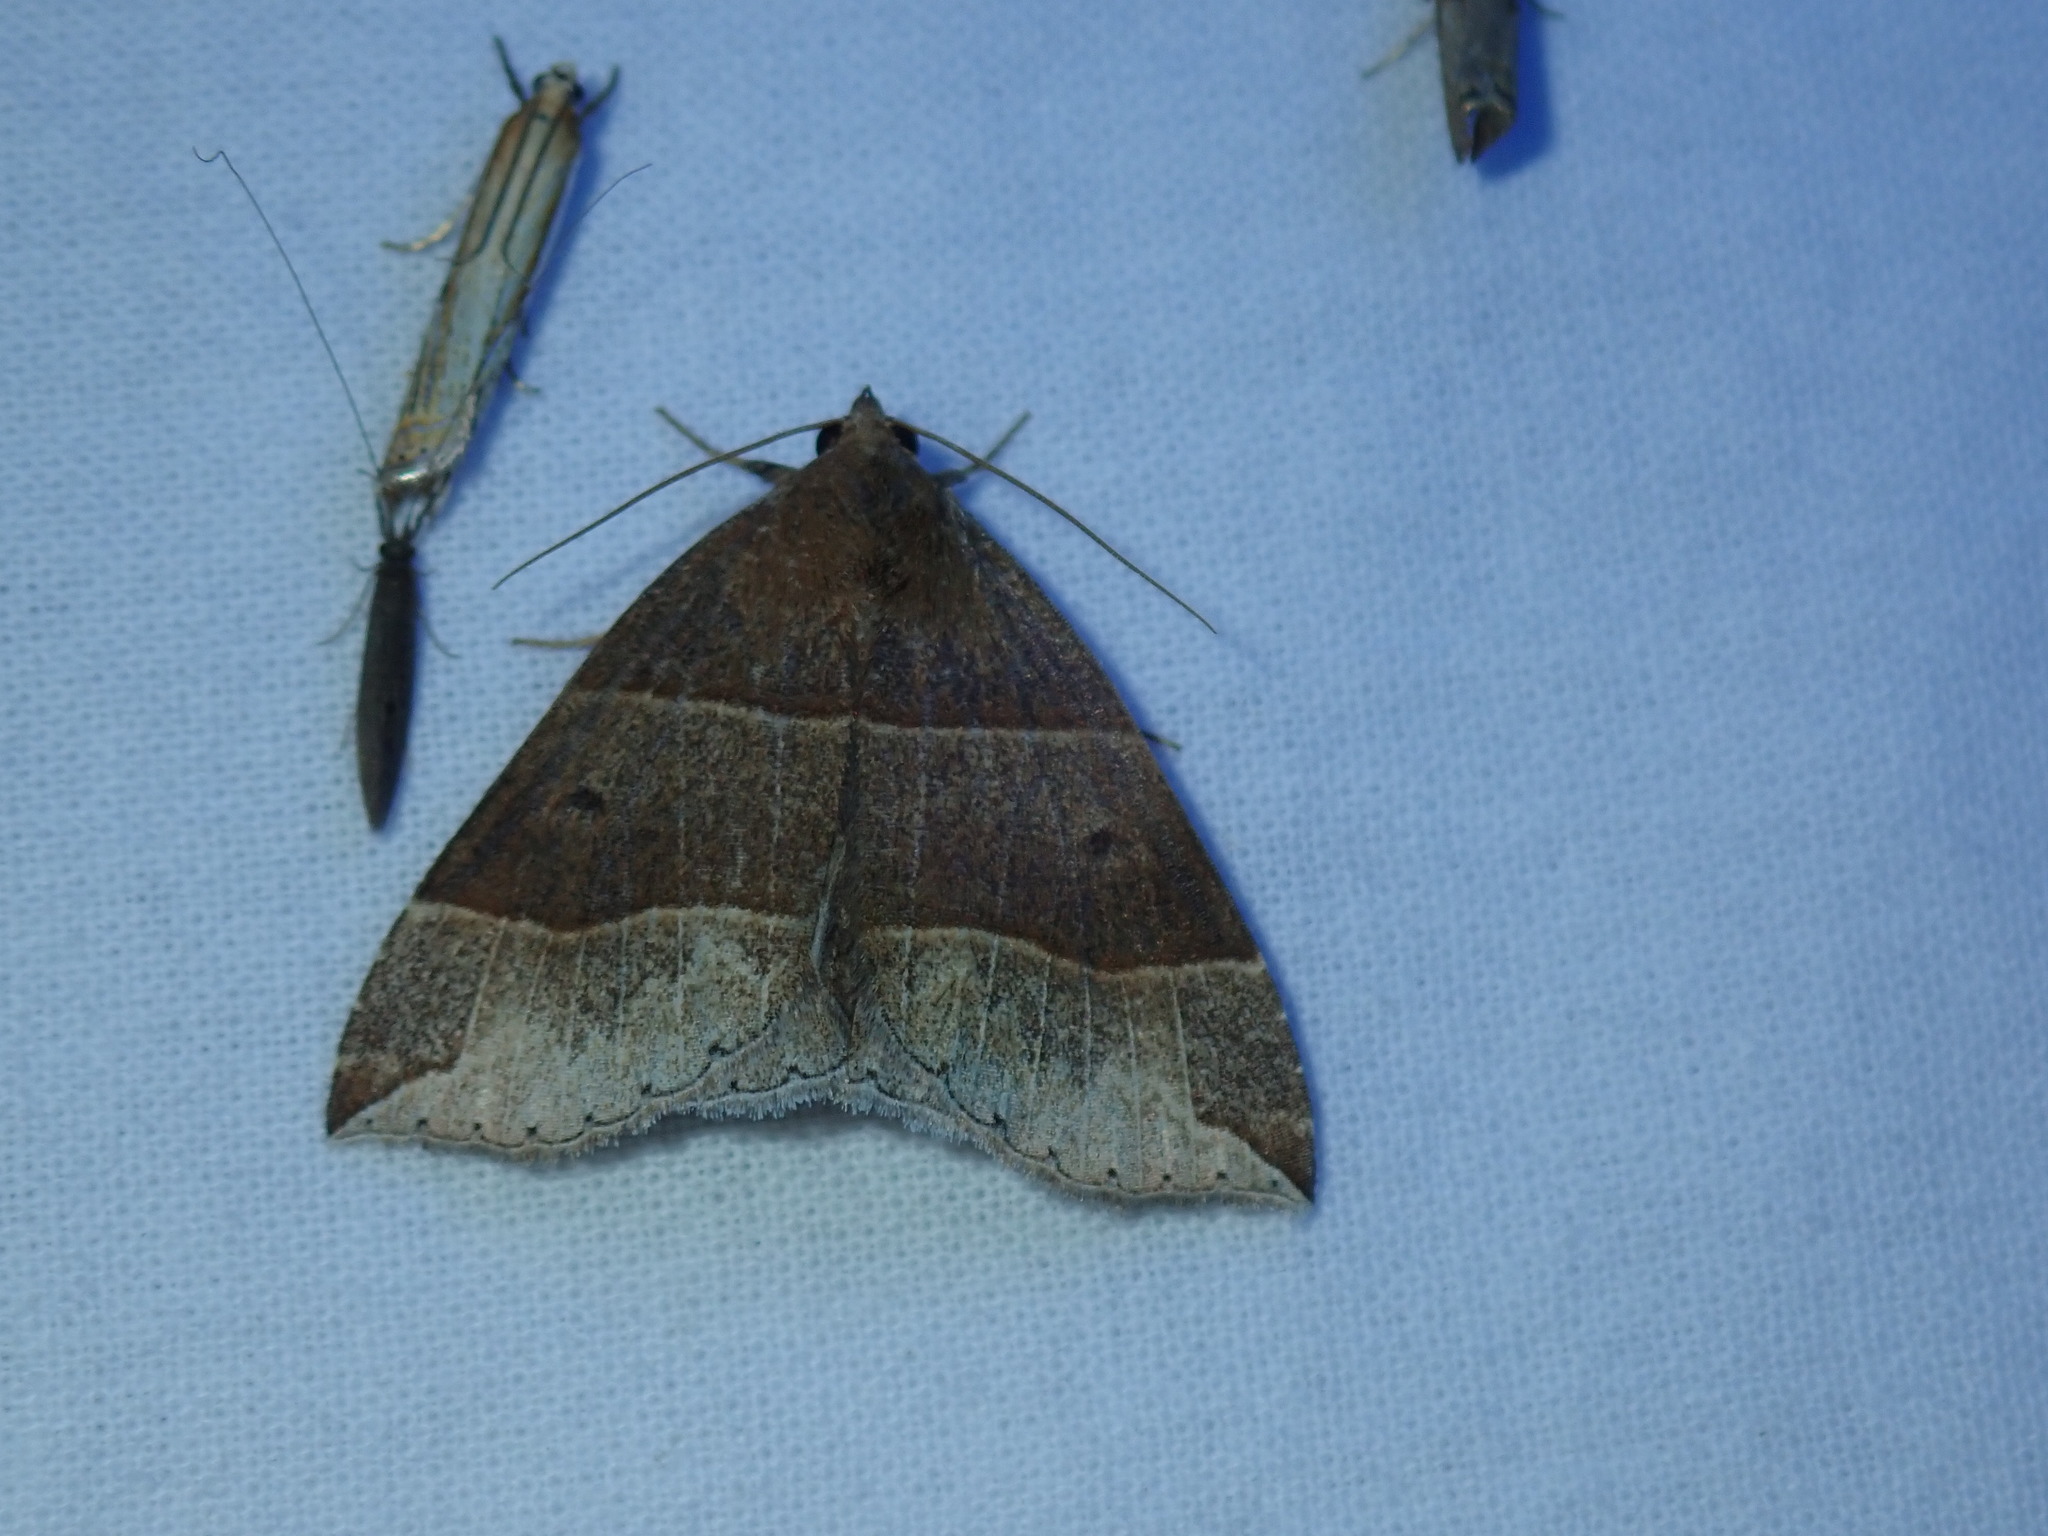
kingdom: Animalia
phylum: Arthropoda
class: Insecta
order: Lepidoptera
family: Erebidae
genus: Parallelia
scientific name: Parallelia bistriaris
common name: Maple looper moth
